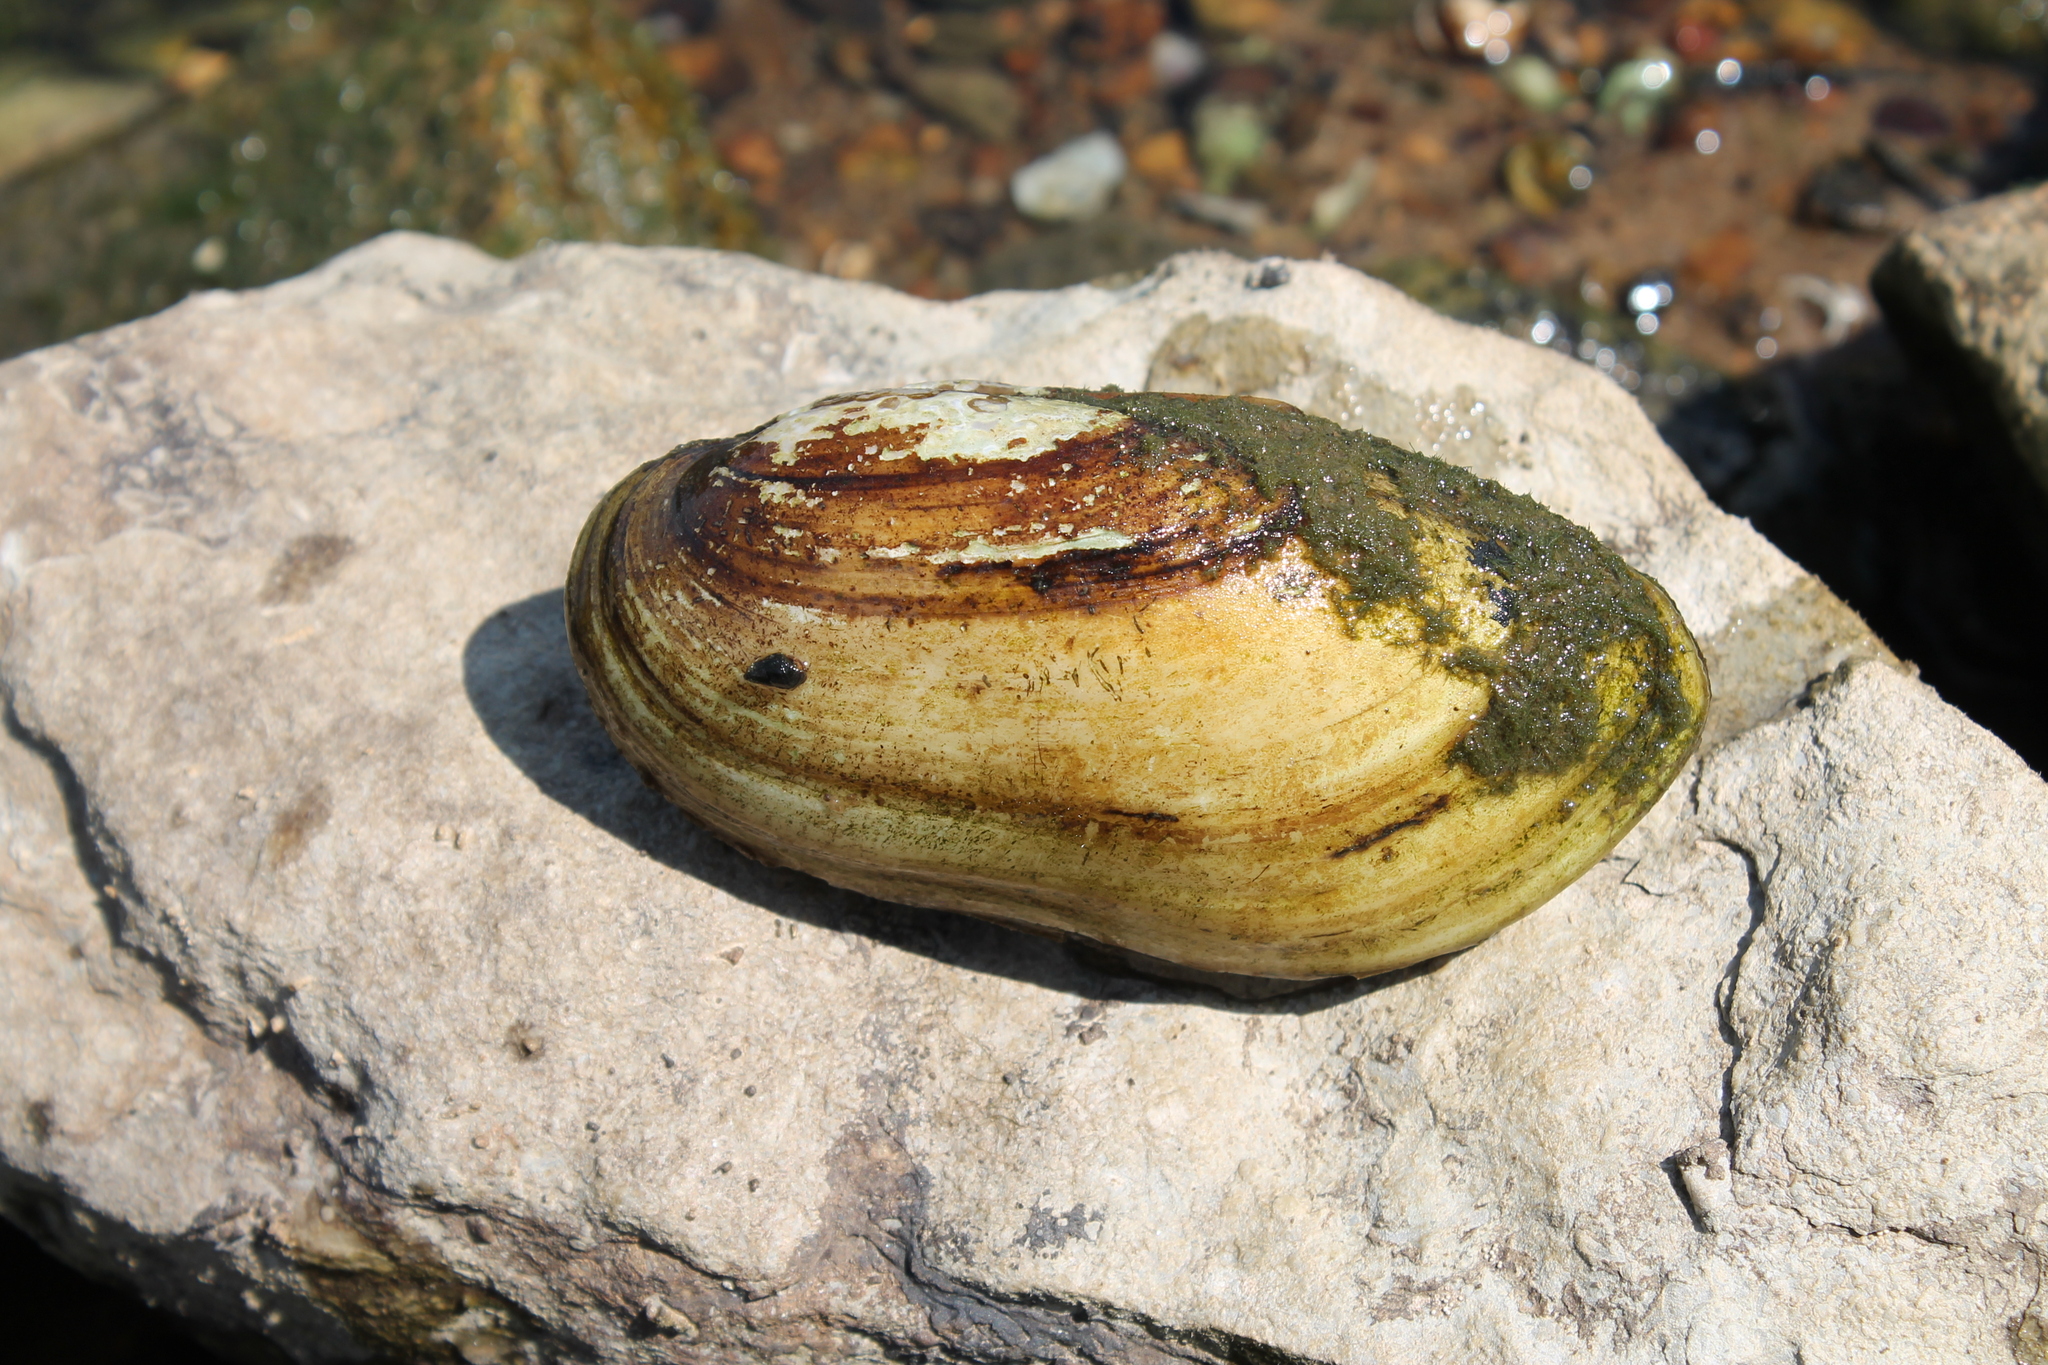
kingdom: Animalia
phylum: Mollusca
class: Bivalvia
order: Unionida
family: Unionidae
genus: Lampsilis
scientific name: Lampsilis teres
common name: Yellow sandshell
